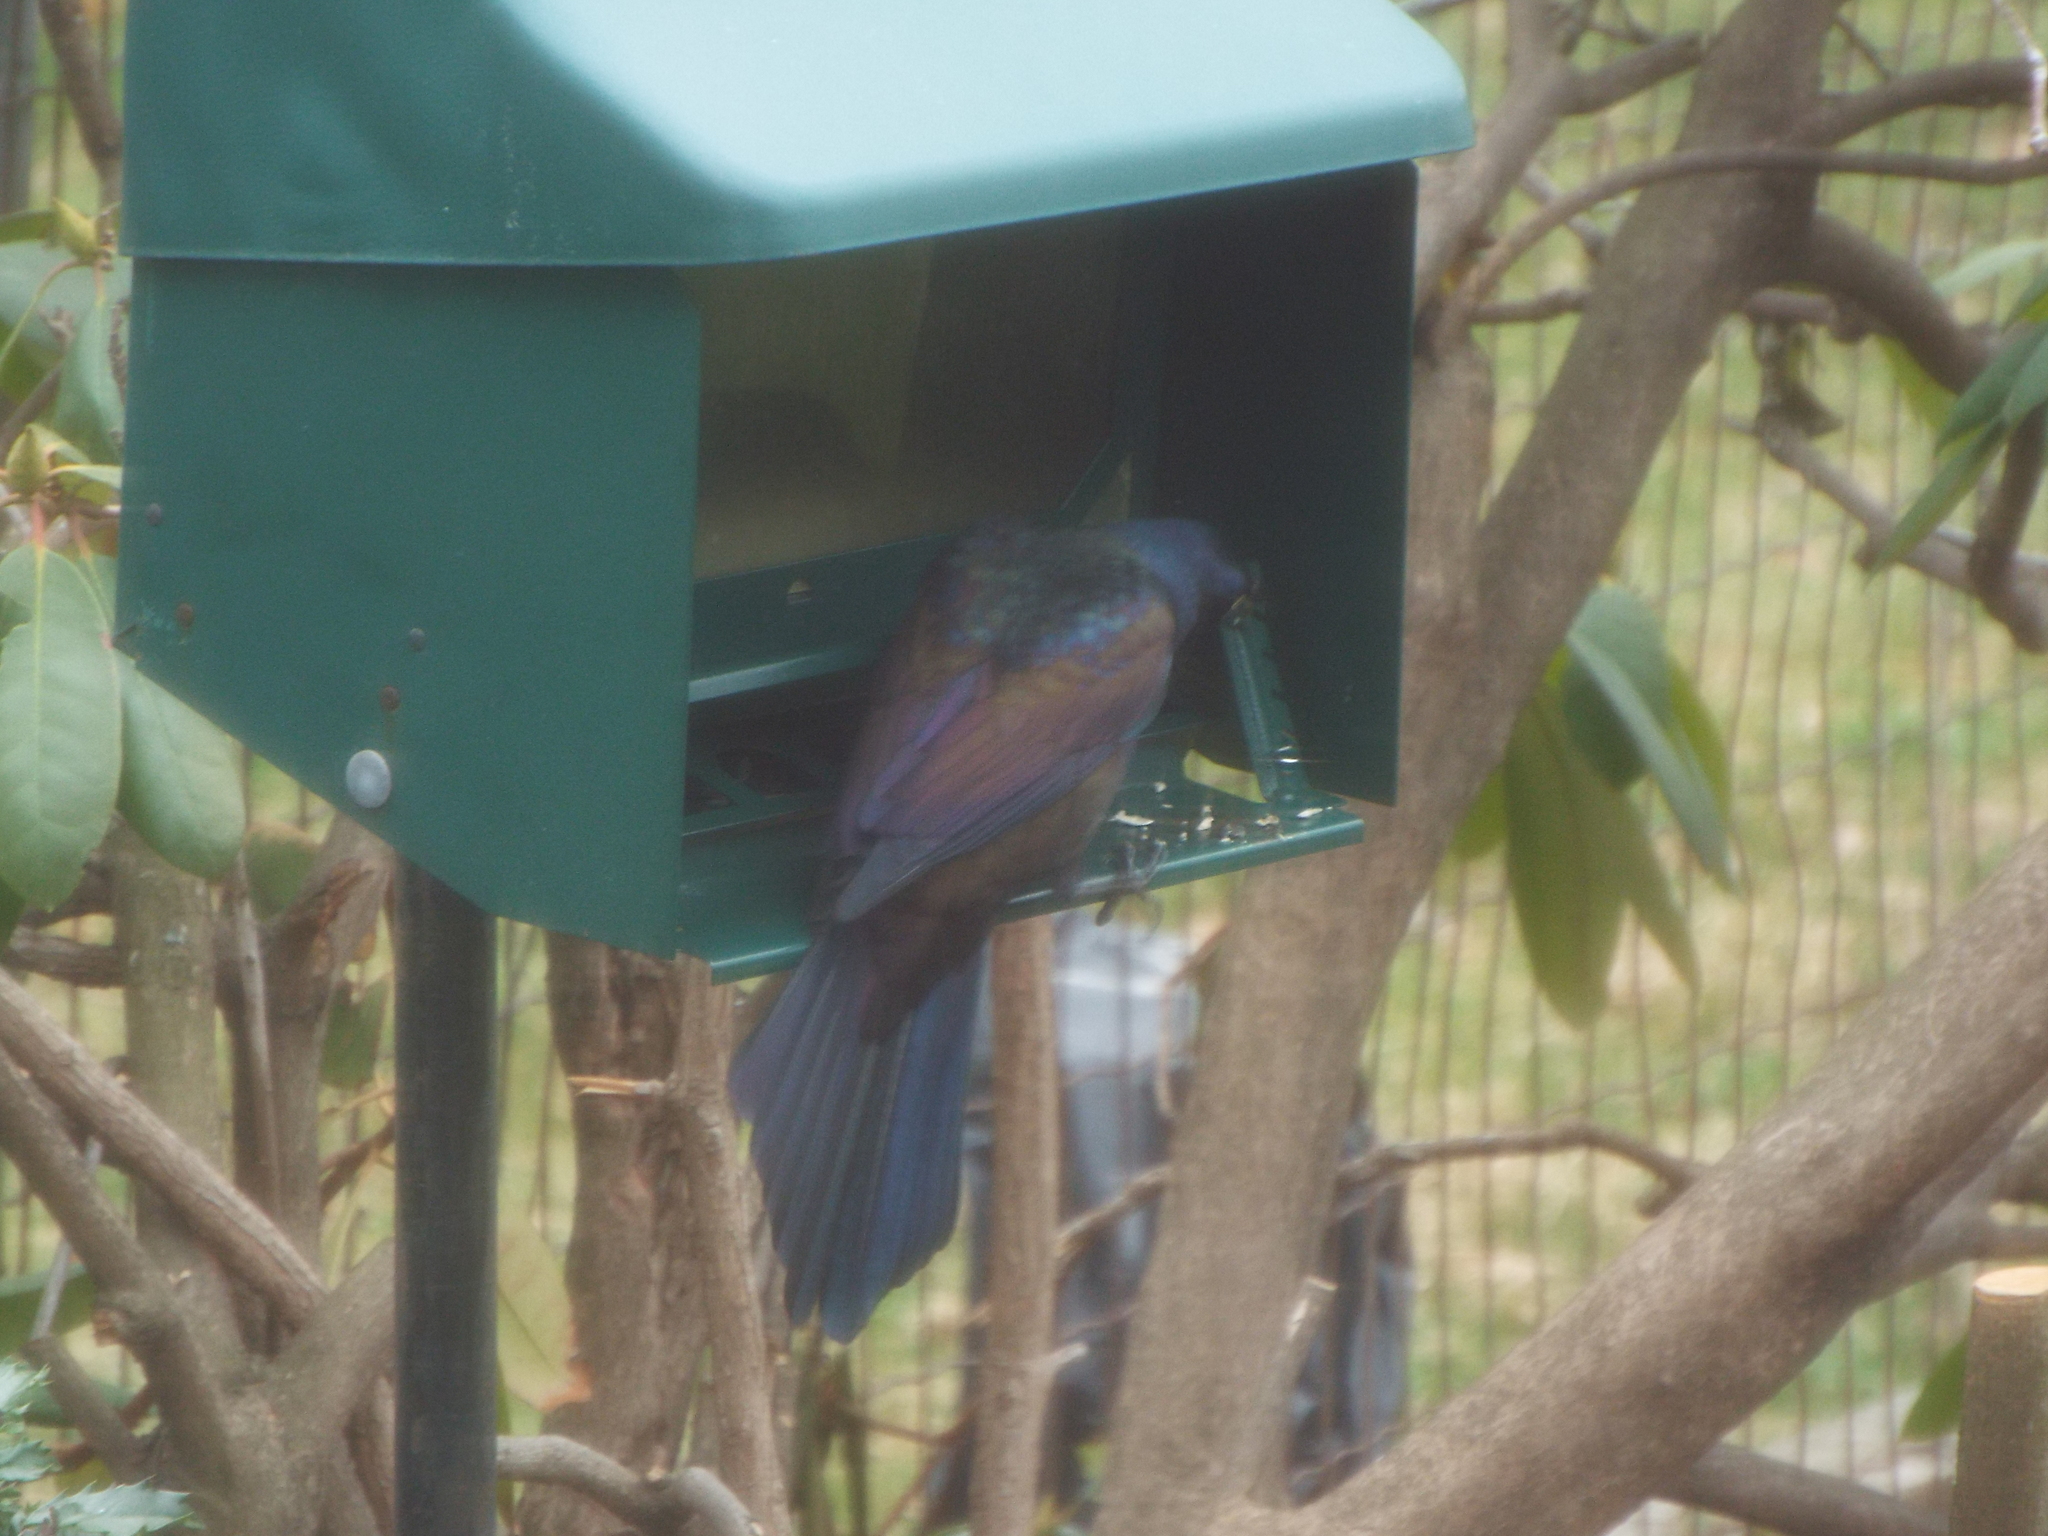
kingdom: Animalia
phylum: Chordata
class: Aves
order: Passeriformes
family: Icteridae
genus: Quiscalus
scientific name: Quiscalus quiscula
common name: Common grackle
